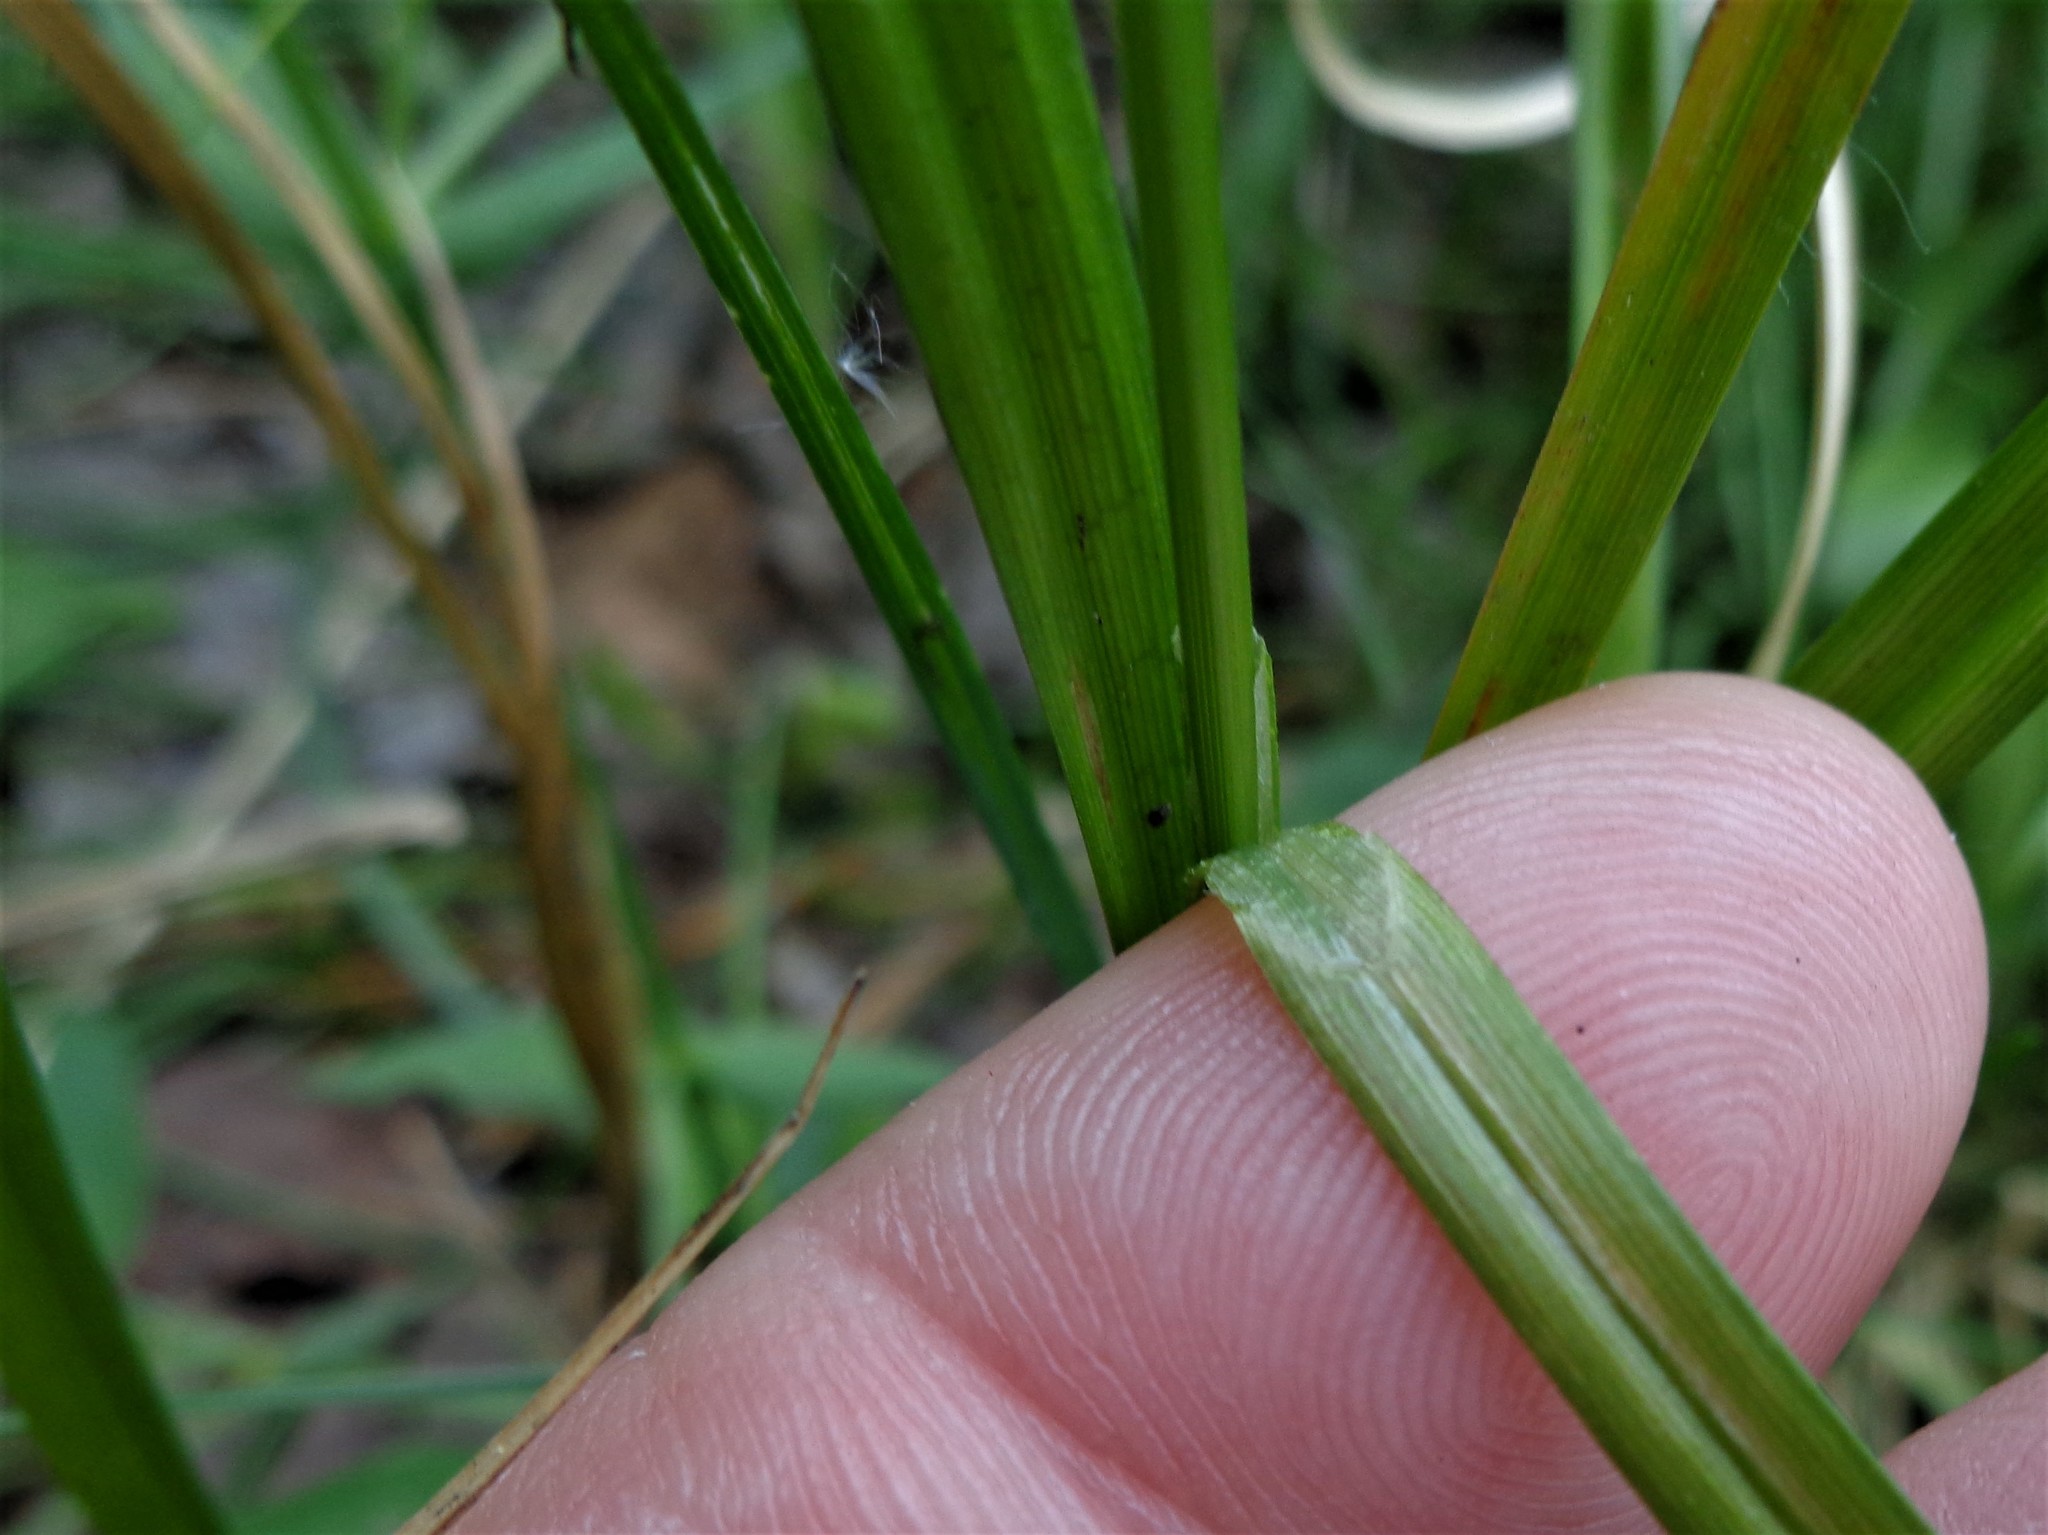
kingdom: Plantae
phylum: Tracheophyta
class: Liliopsida
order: Poales
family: Cyperaceae
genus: Carex
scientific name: Carex vesicaria
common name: Bladder-sedge
